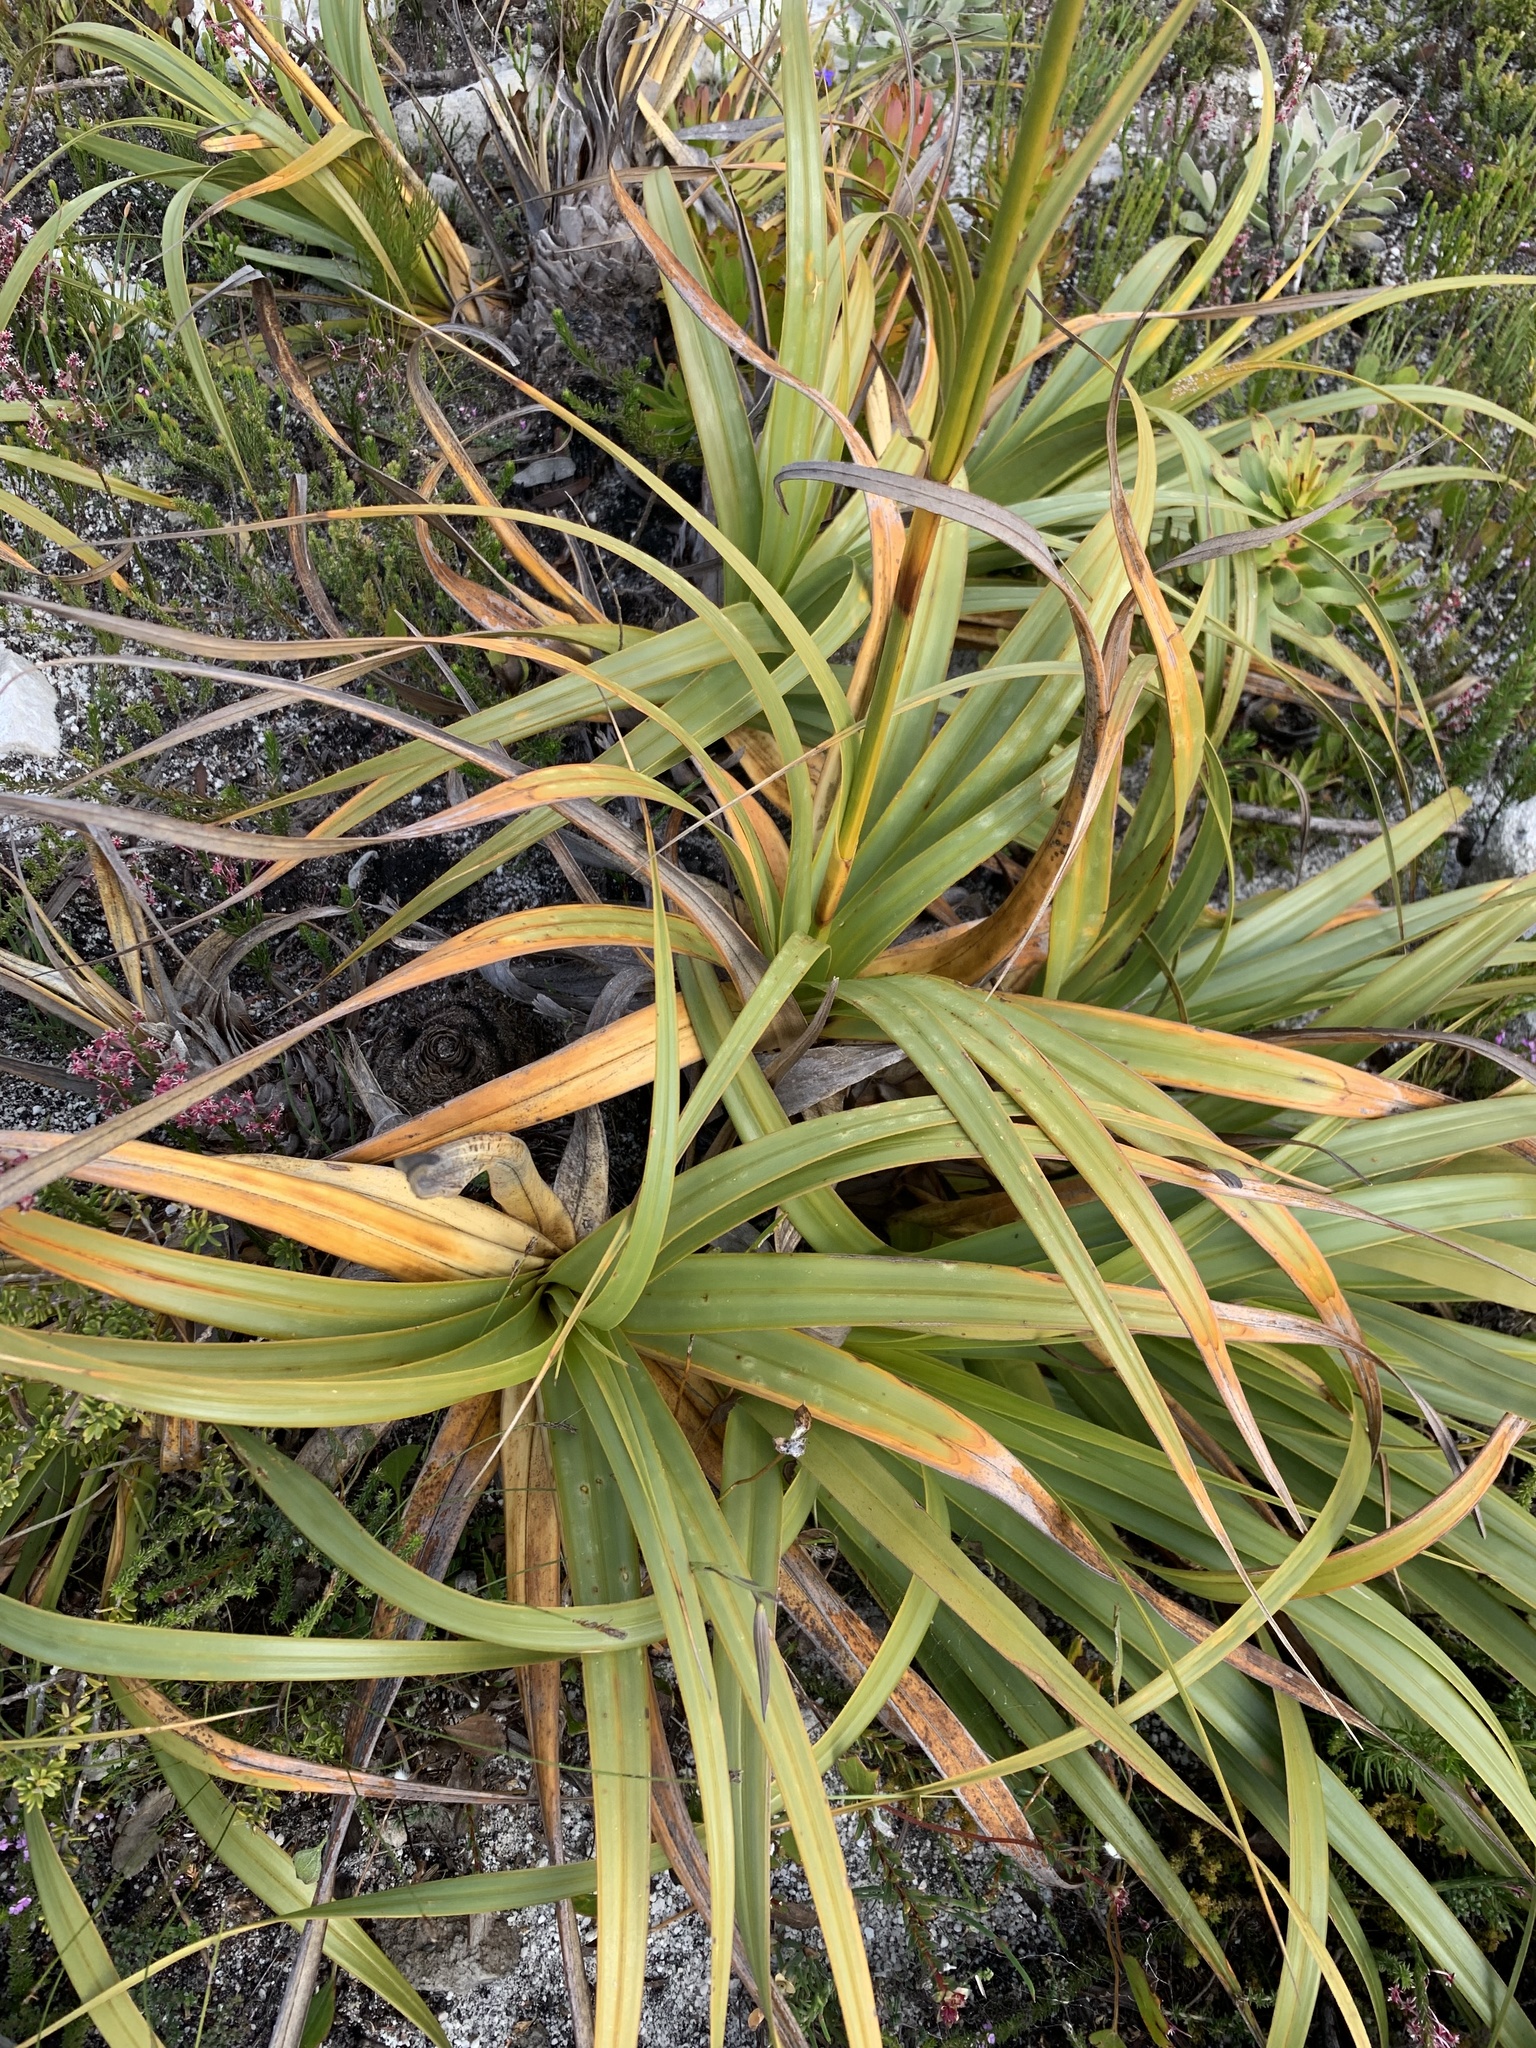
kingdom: Plantae
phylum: Tracheophyta
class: Liliopsida
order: Poales
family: Cyperaceae
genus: Tetraria
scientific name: Tetraria thermalis
